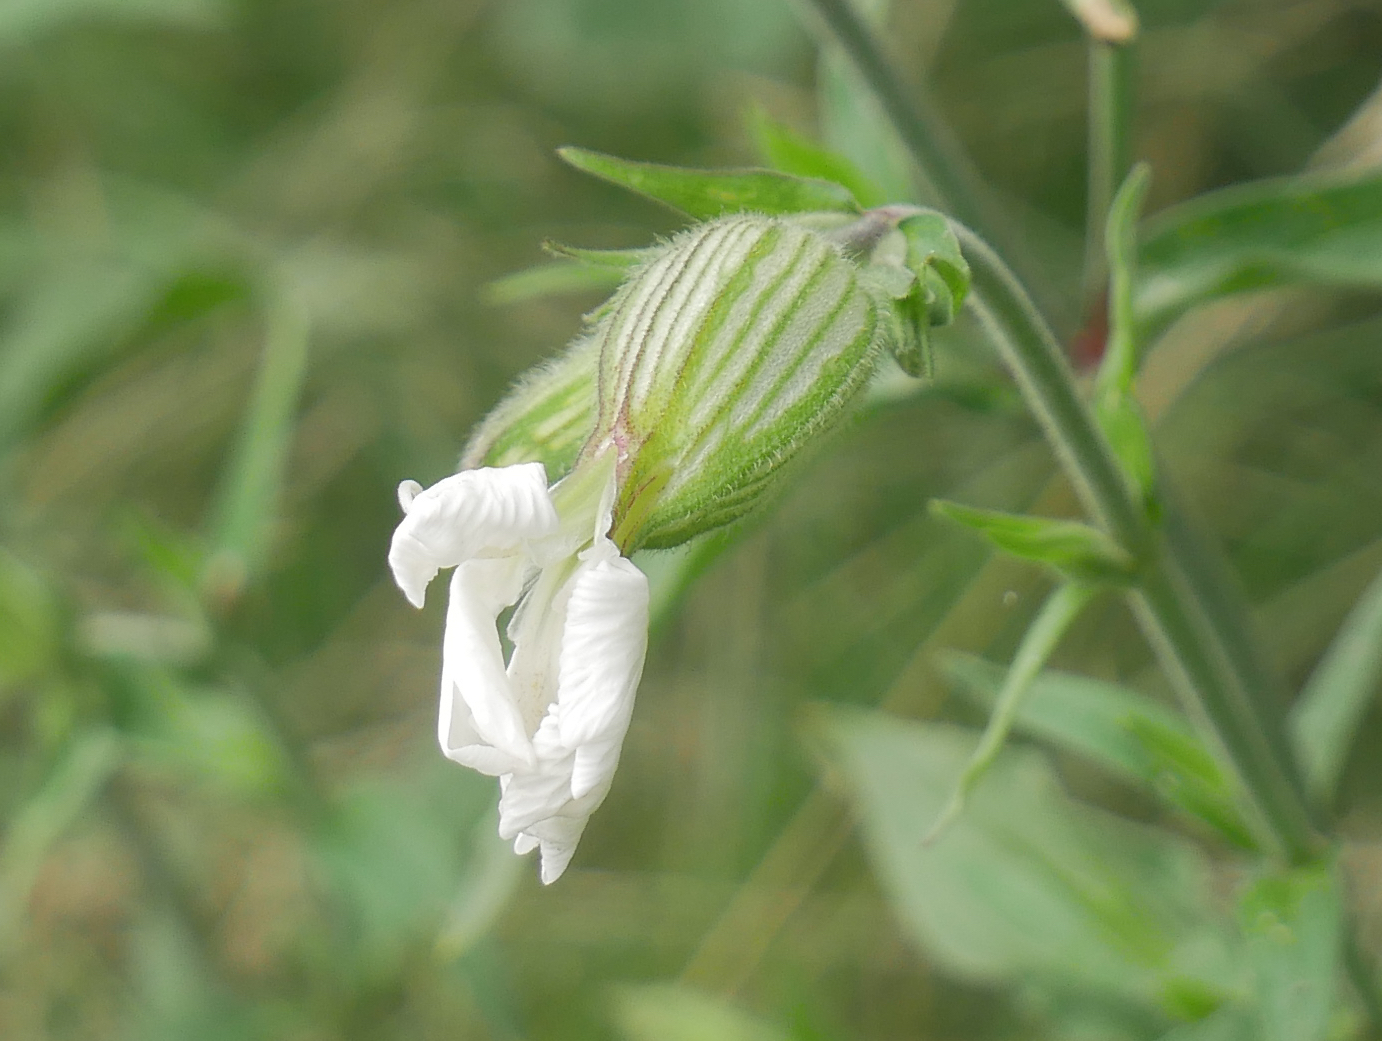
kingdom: Plantae
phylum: Tracheophyta
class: Magnoliopsida
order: Caryophyllales
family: Caryophyllaceae
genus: Silene
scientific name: Silene latifolia
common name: White campion
